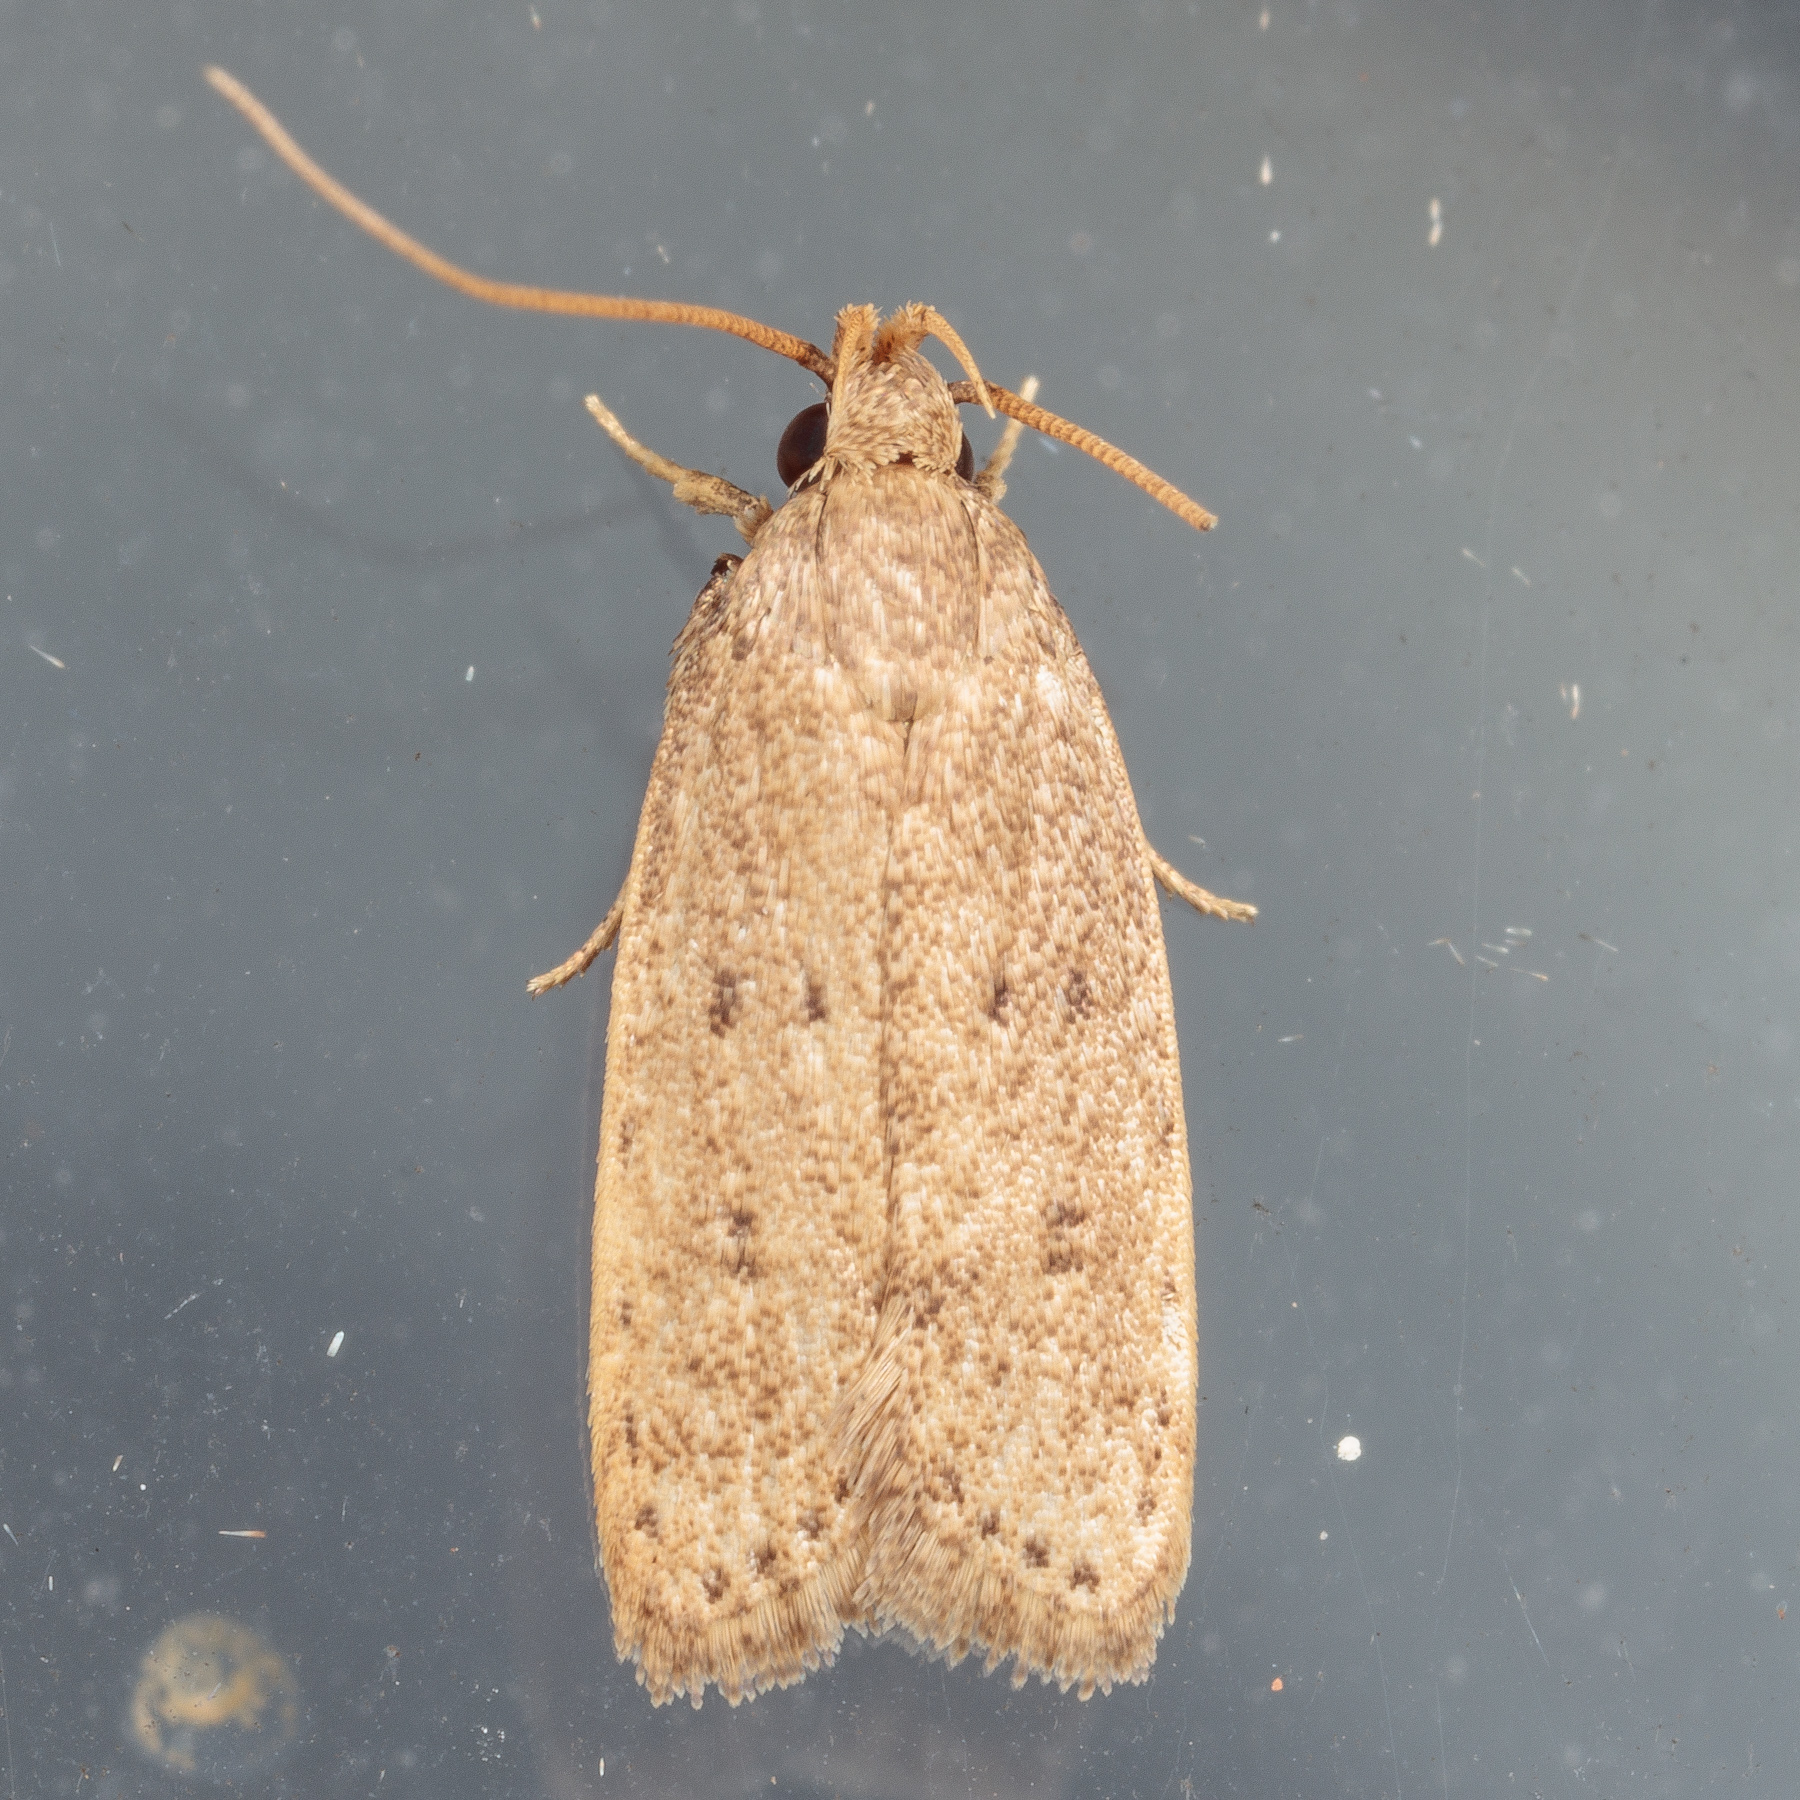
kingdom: Animalia
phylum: Arthropoda
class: Insecta
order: Lepidoptera
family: Autostichidae
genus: Autosticha
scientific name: Autosticha kyotensis
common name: Kyoto moth
